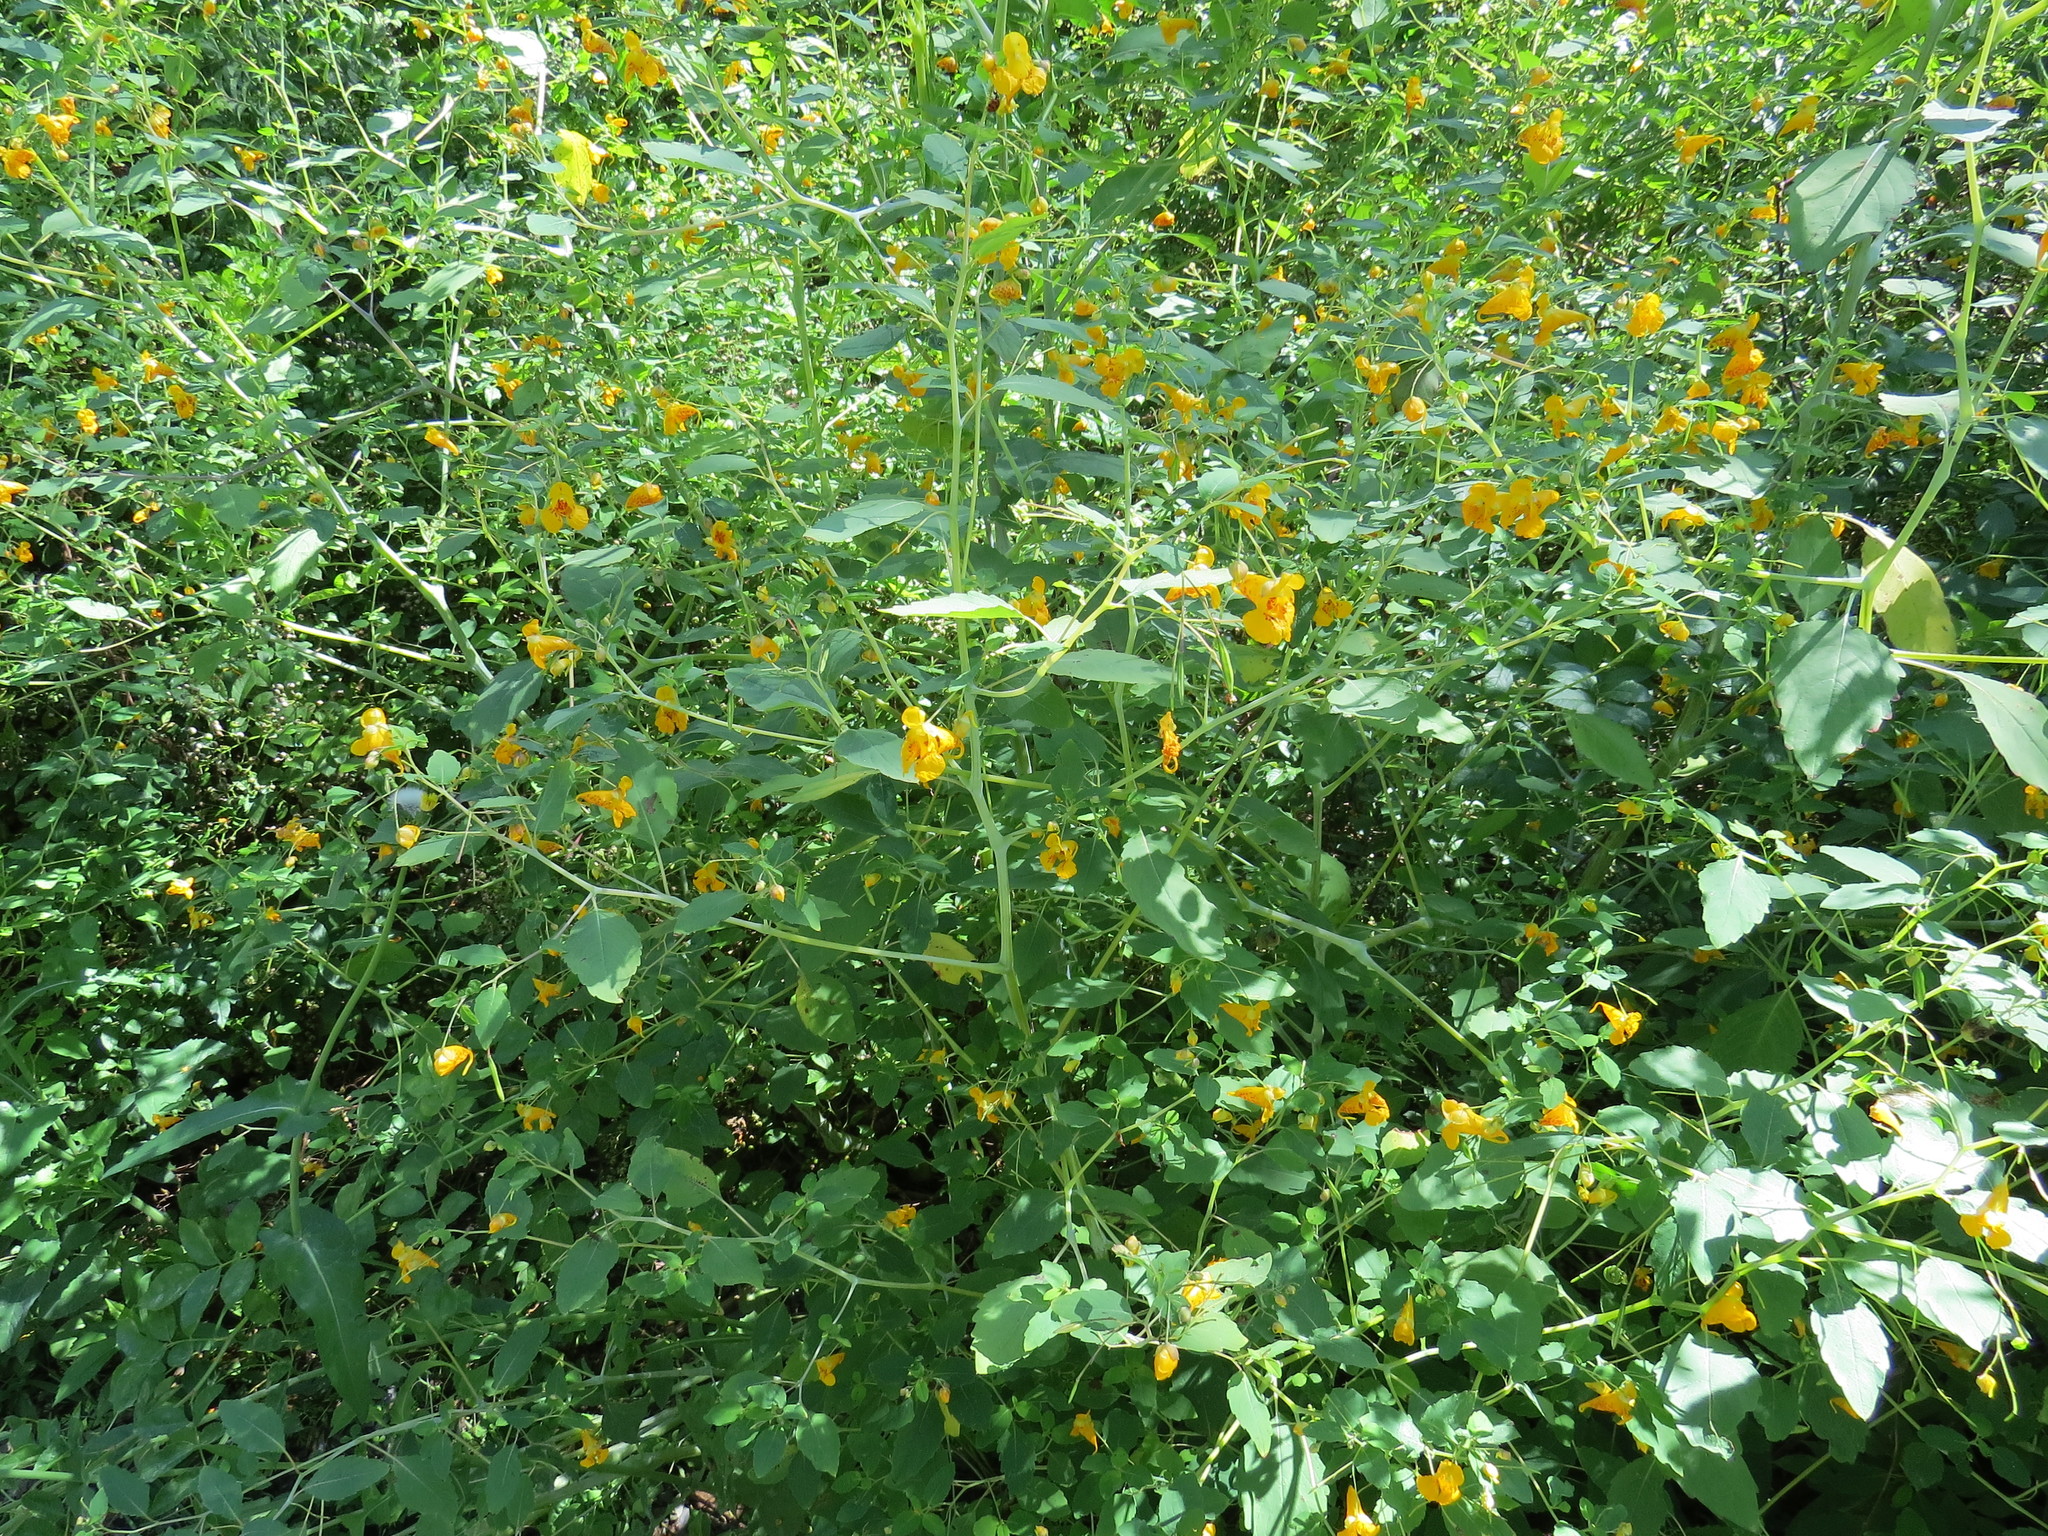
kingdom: Plantae
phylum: Tracheophyta
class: Magnoliopsida
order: Ericales
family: Balsaminaceae
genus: Impatiens
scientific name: Impatiens capensis
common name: Orange balsam
